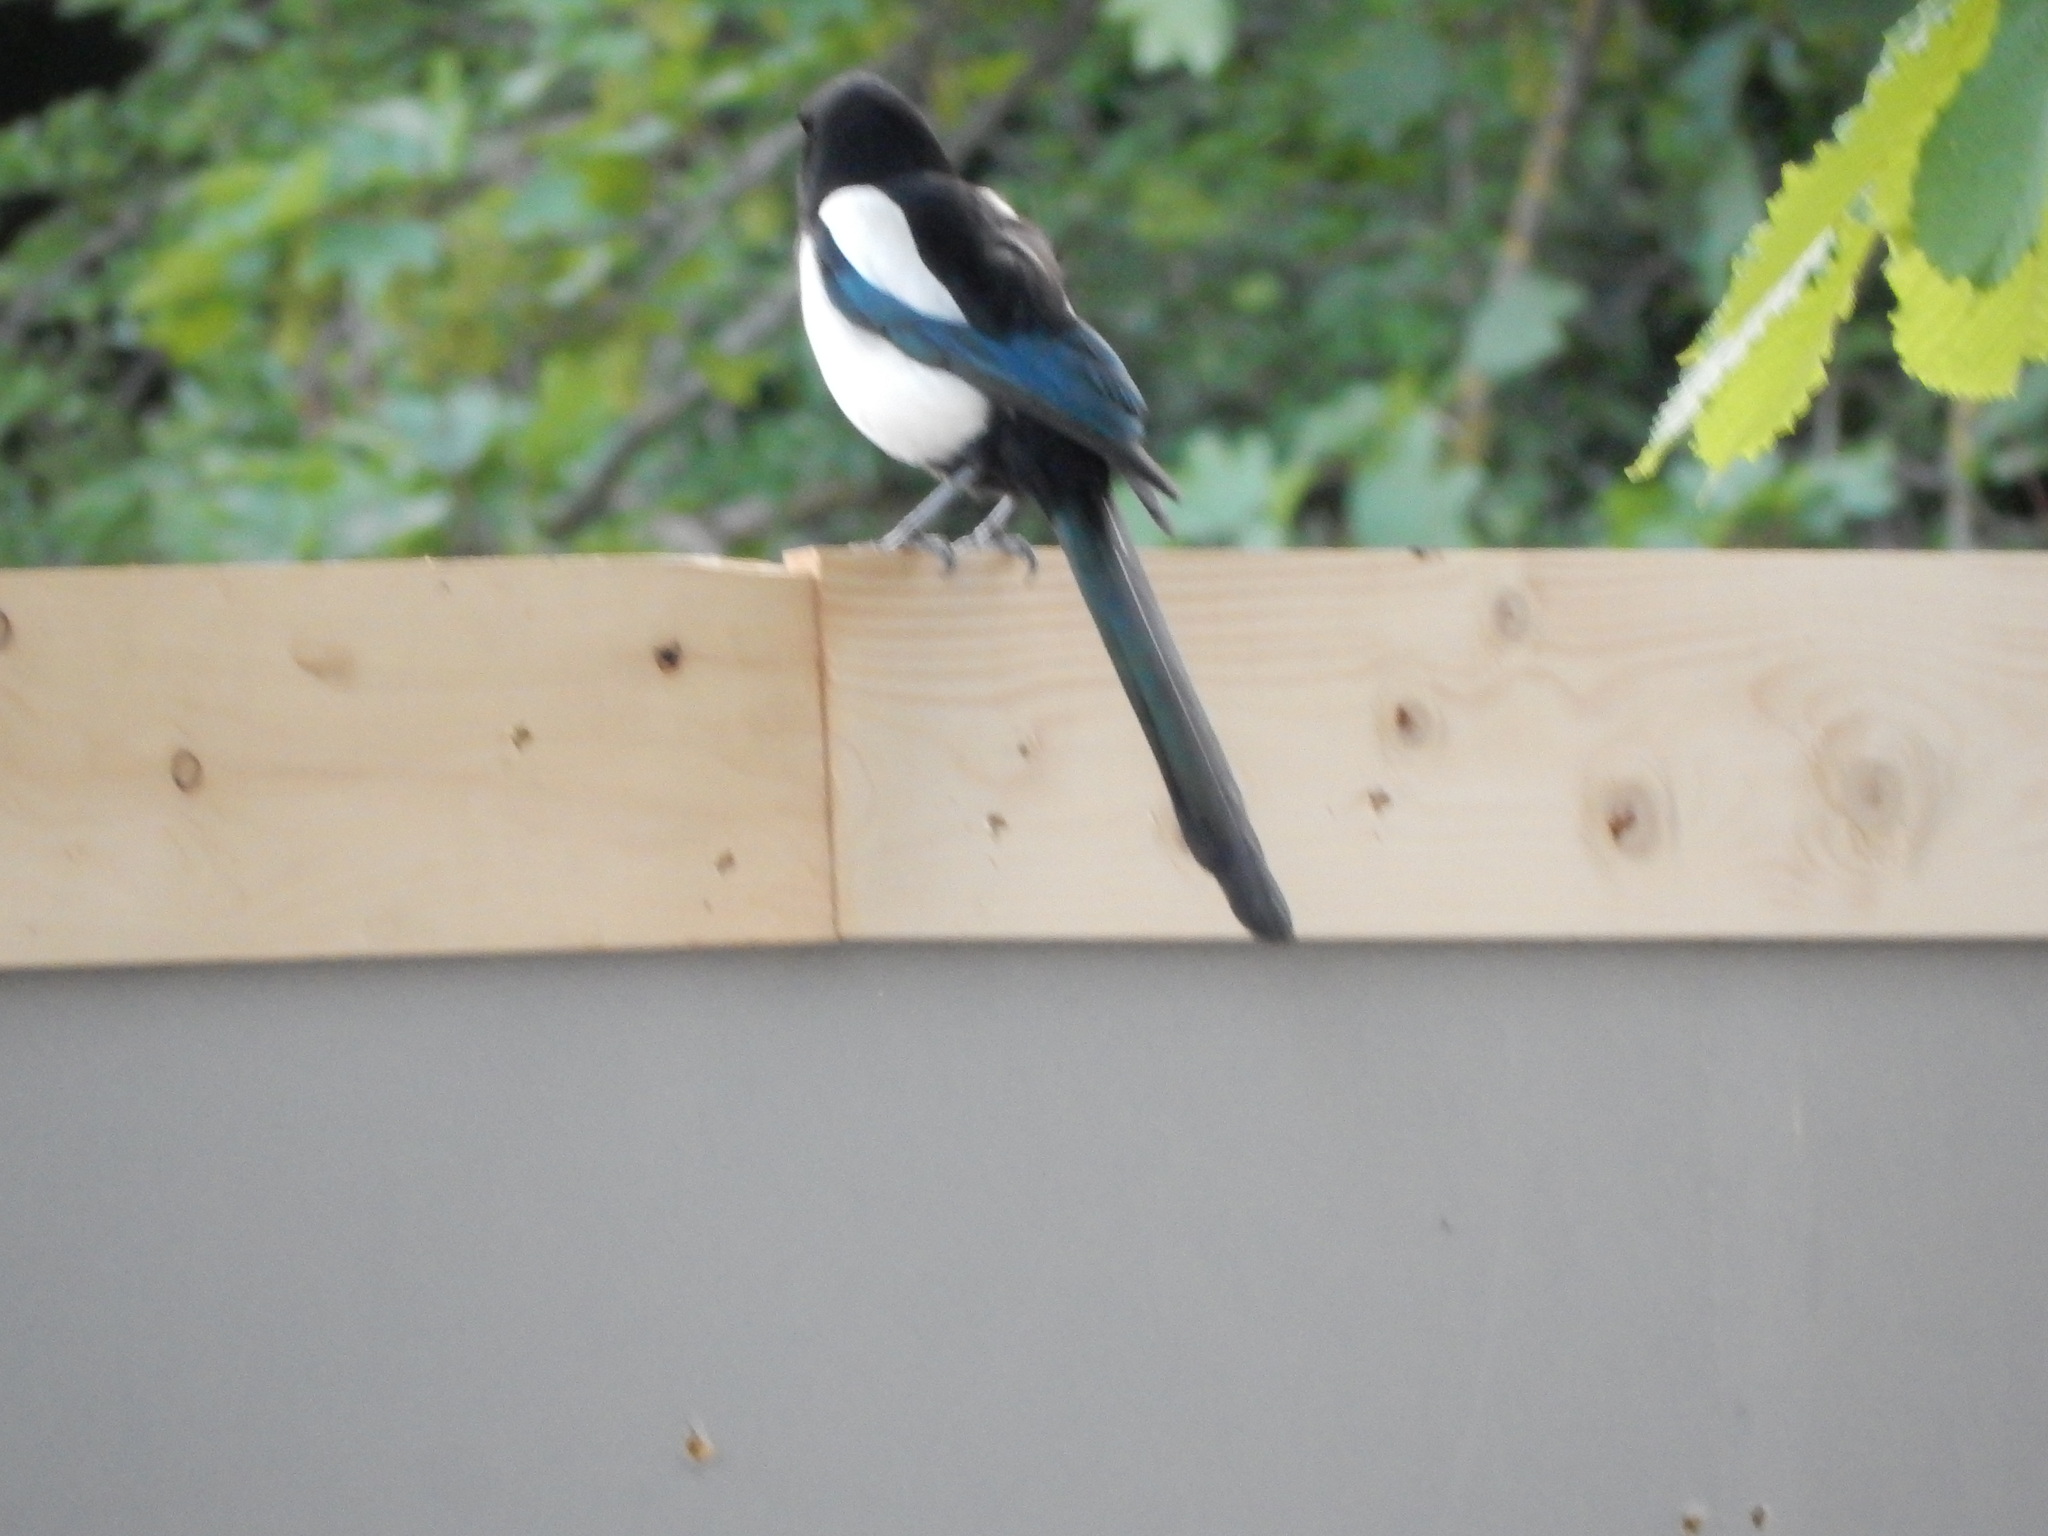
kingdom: Animalia
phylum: Chordata
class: Aves
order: Passeriformes
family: Corvidae
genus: Pica
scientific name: Pica pica
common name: Eurasian magpie
